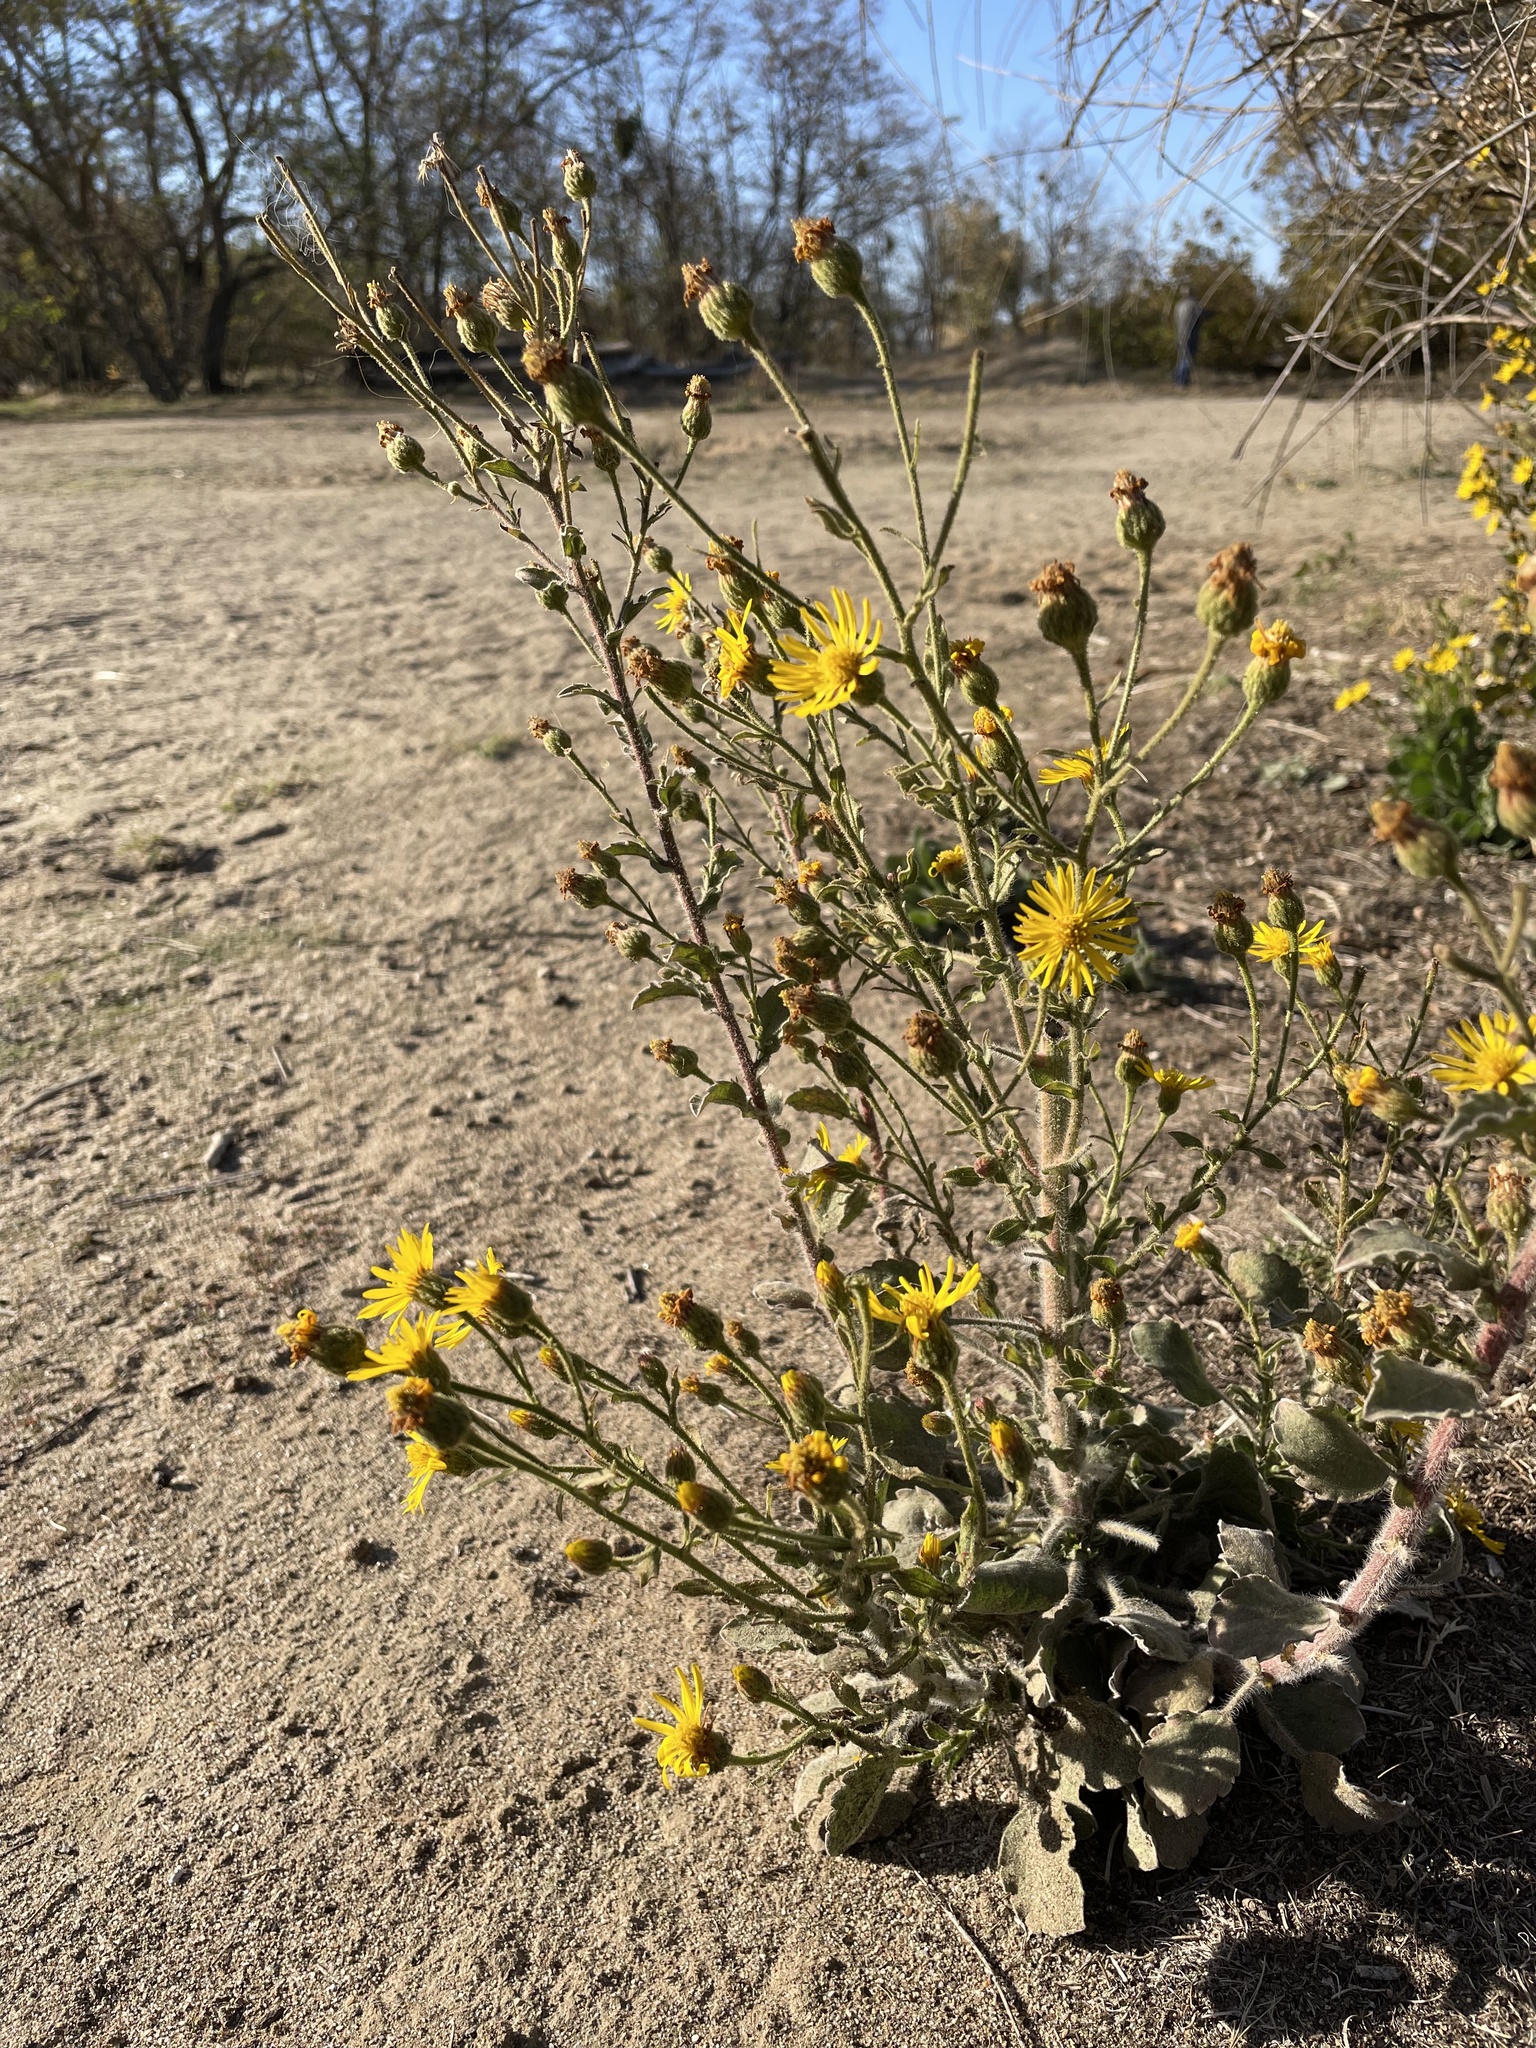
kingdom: Plantae
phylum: Tracheophyta
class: Magnoliopsida
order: Asterales
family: Asteraceae
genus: Heterotheca
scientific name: Heterotheca grandiflora
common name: Telegraphweed
